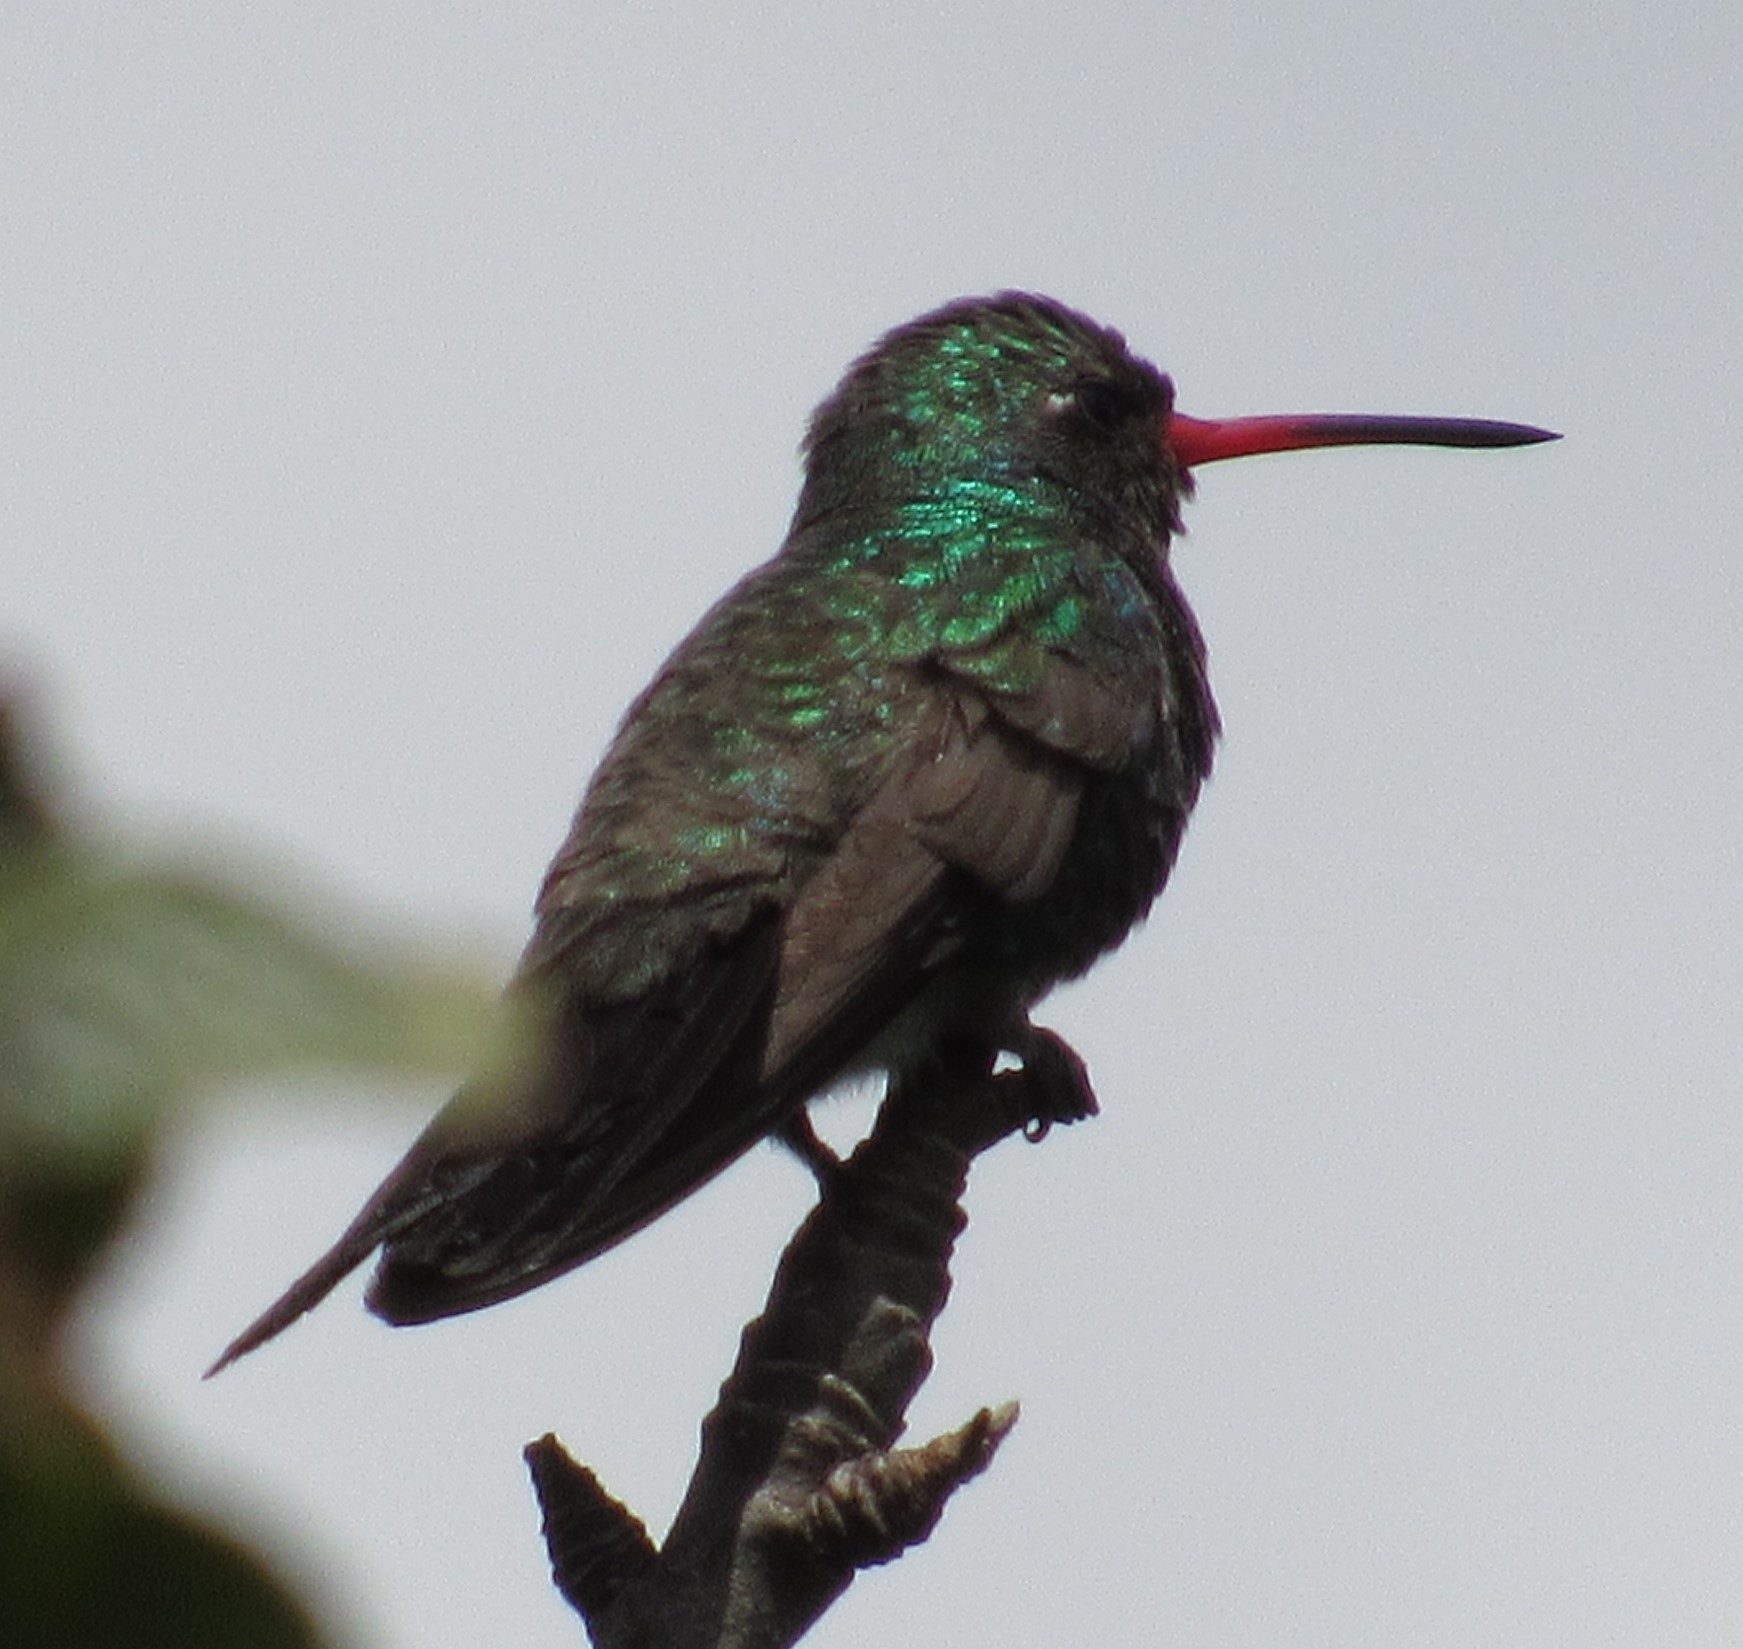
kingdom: Animalia
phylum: Chordata
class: Aves
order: Apodiformes
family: Trochilidae
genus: Cynanthus
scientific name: Cynanthus latirostris
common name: Broad-billed hummingbird
